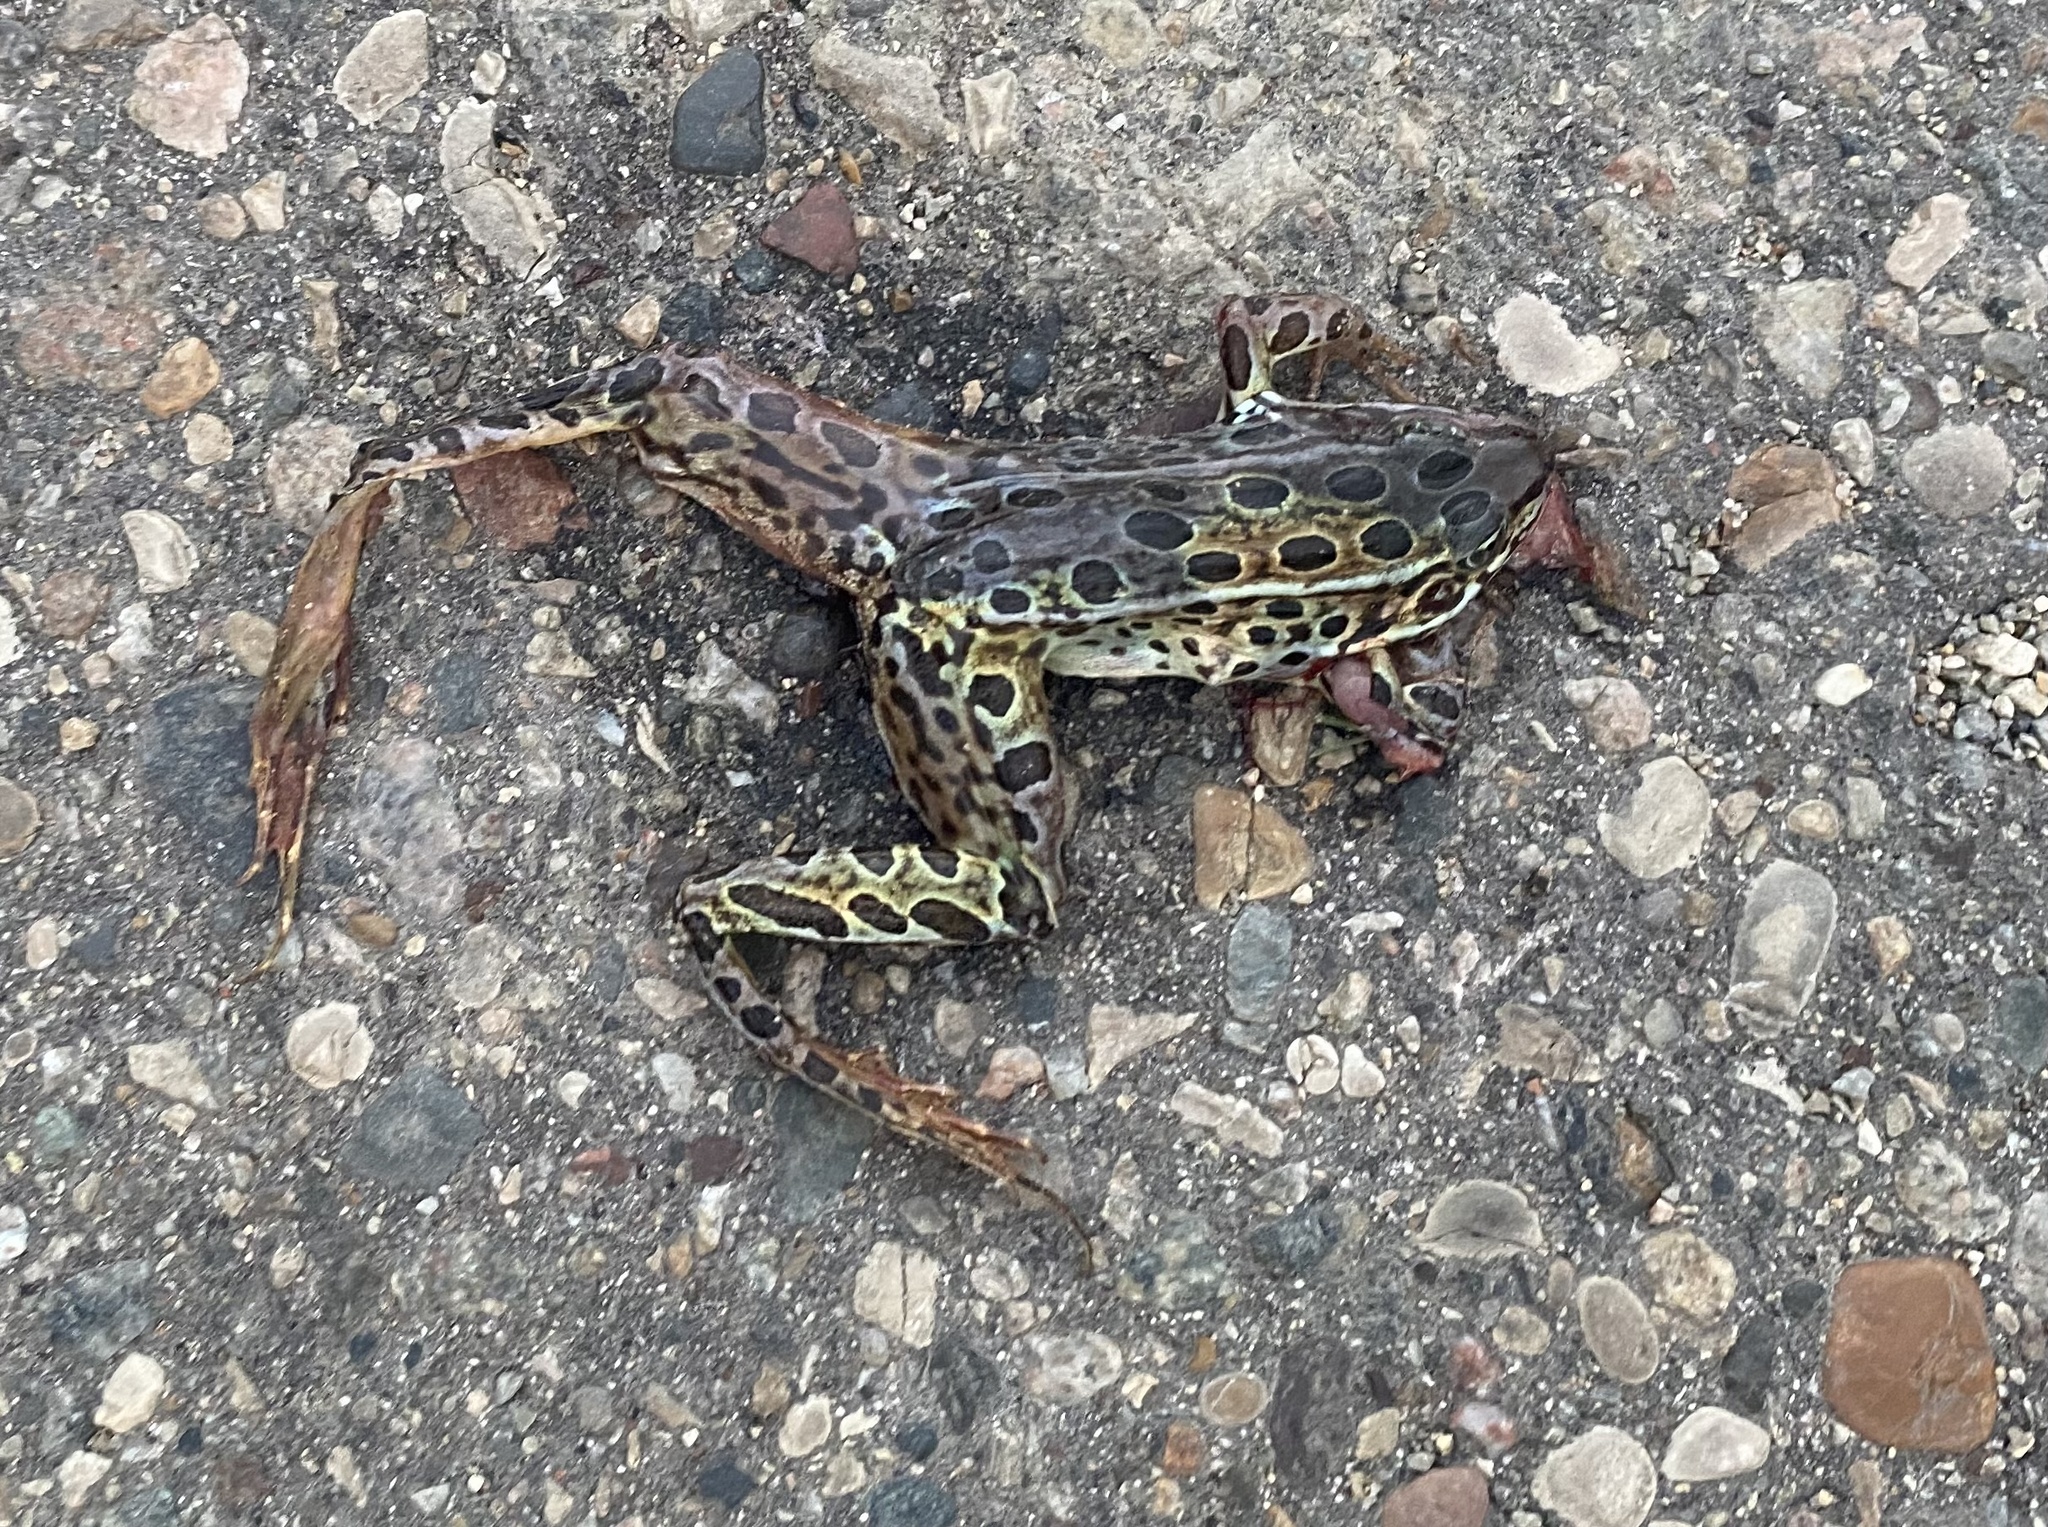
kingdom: Animalia
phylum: Chordata
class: Amphibia
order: Anura
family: Ranidae
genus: Lithobates
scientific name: Lithobates pipiens
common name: Northern leopard frog
